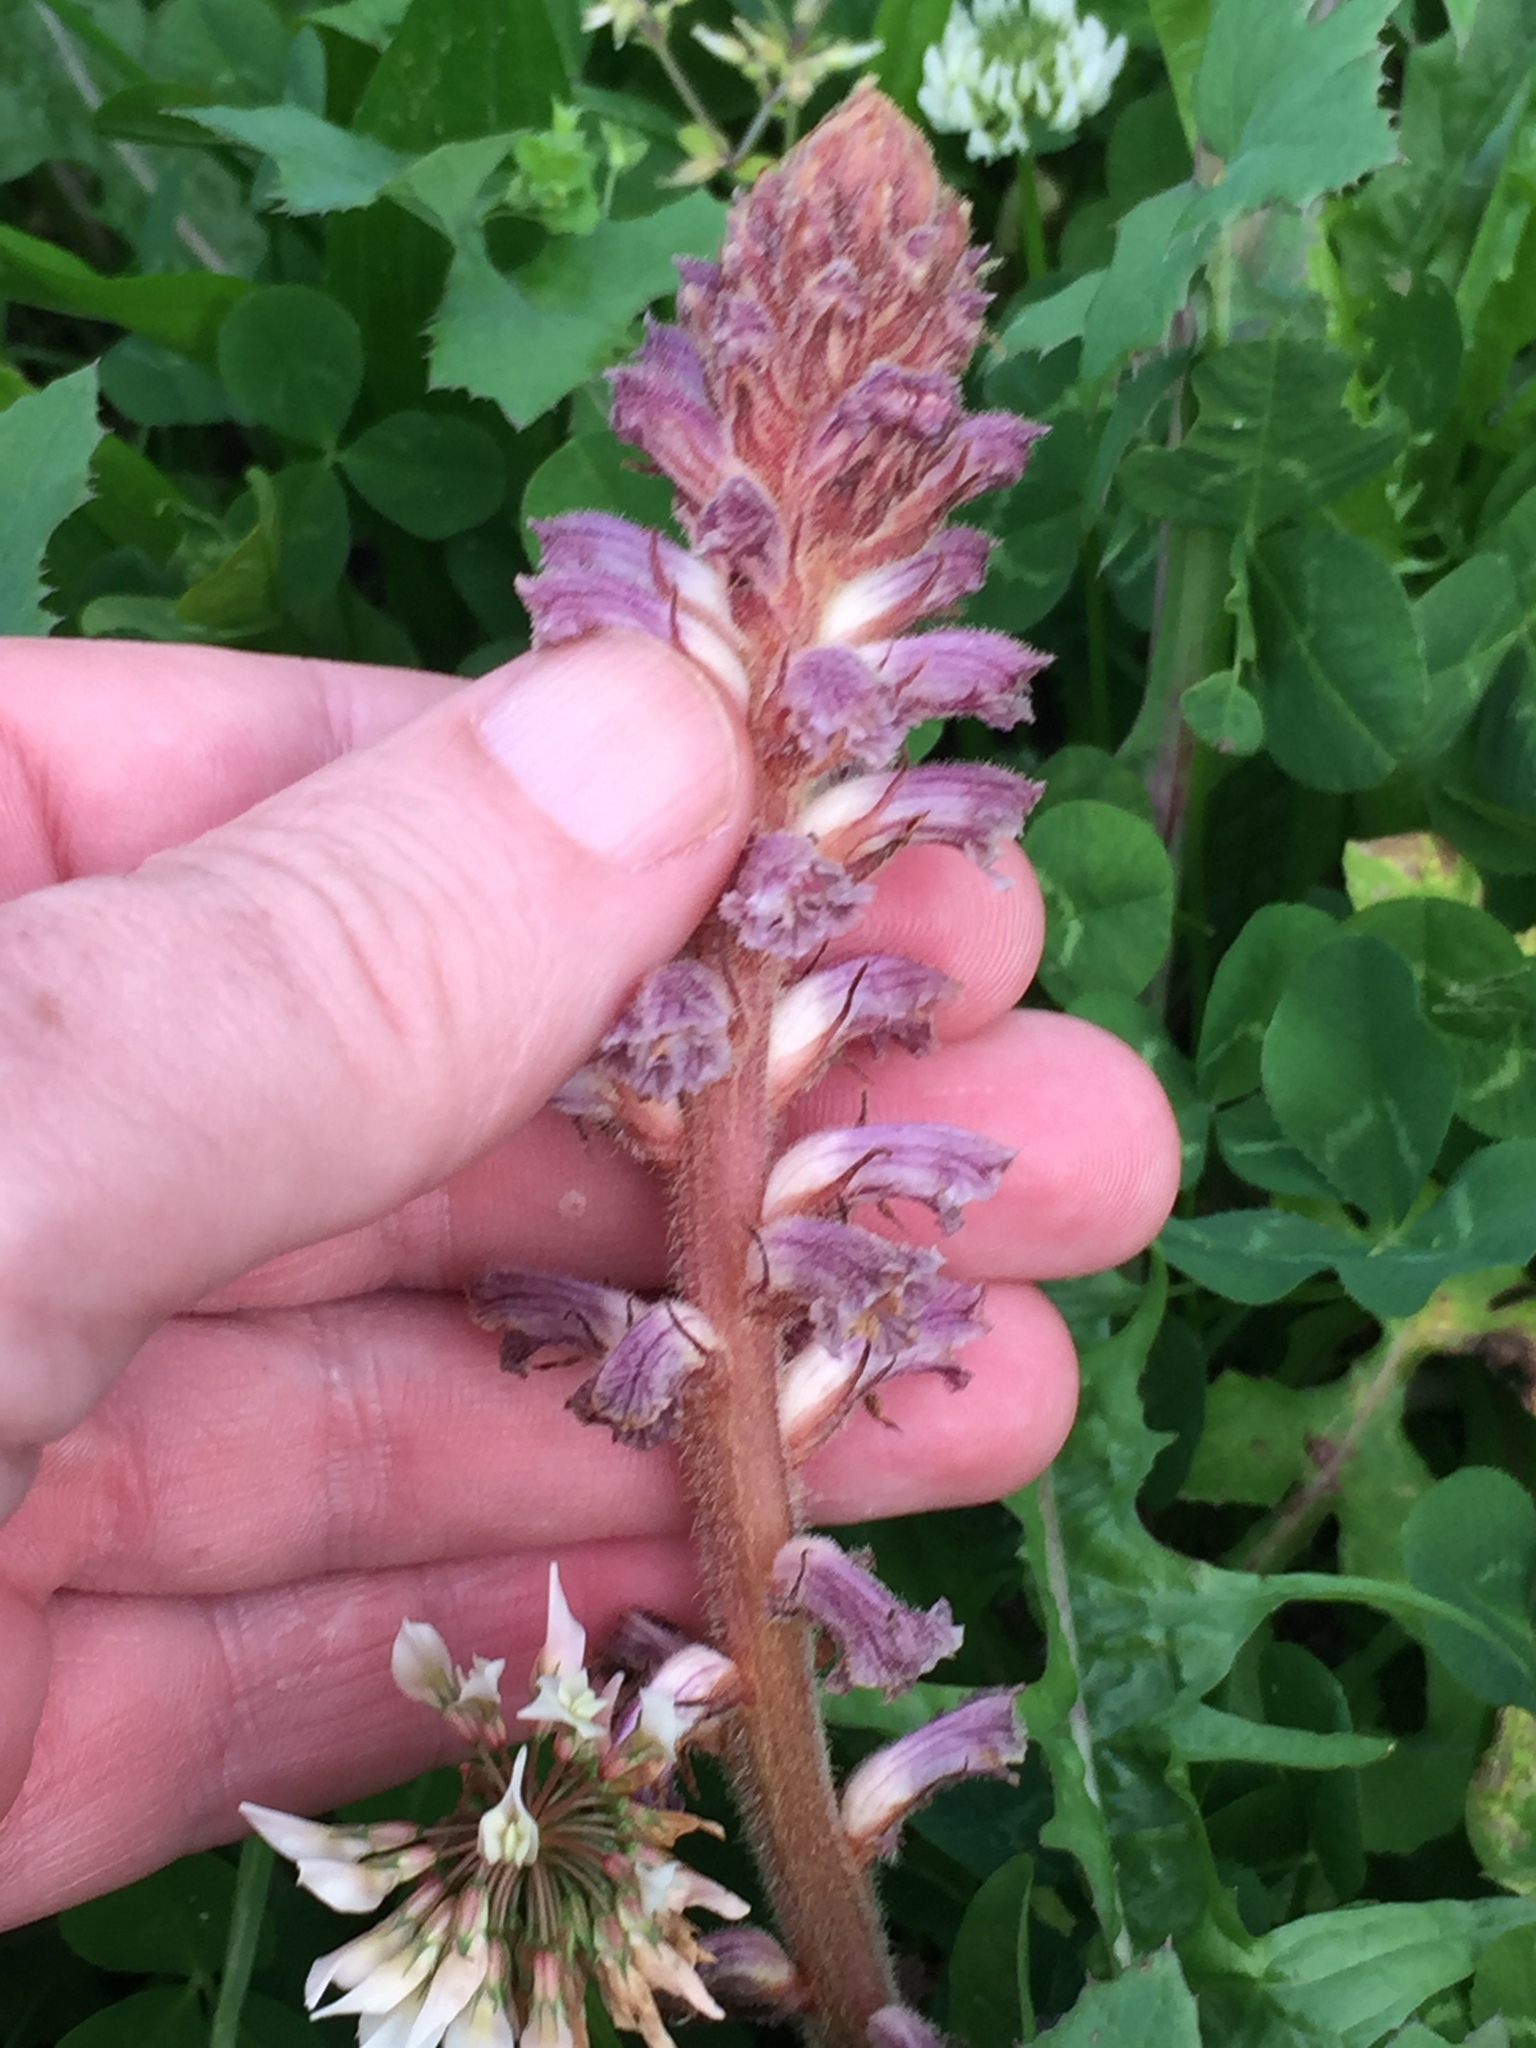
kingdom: Plantae
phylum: Tracheophyta
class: Magnoliopsida
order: Lamiales
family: Orobanchaceae
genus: Orobanche
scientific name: Orobanche minor
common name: Common broomrape
